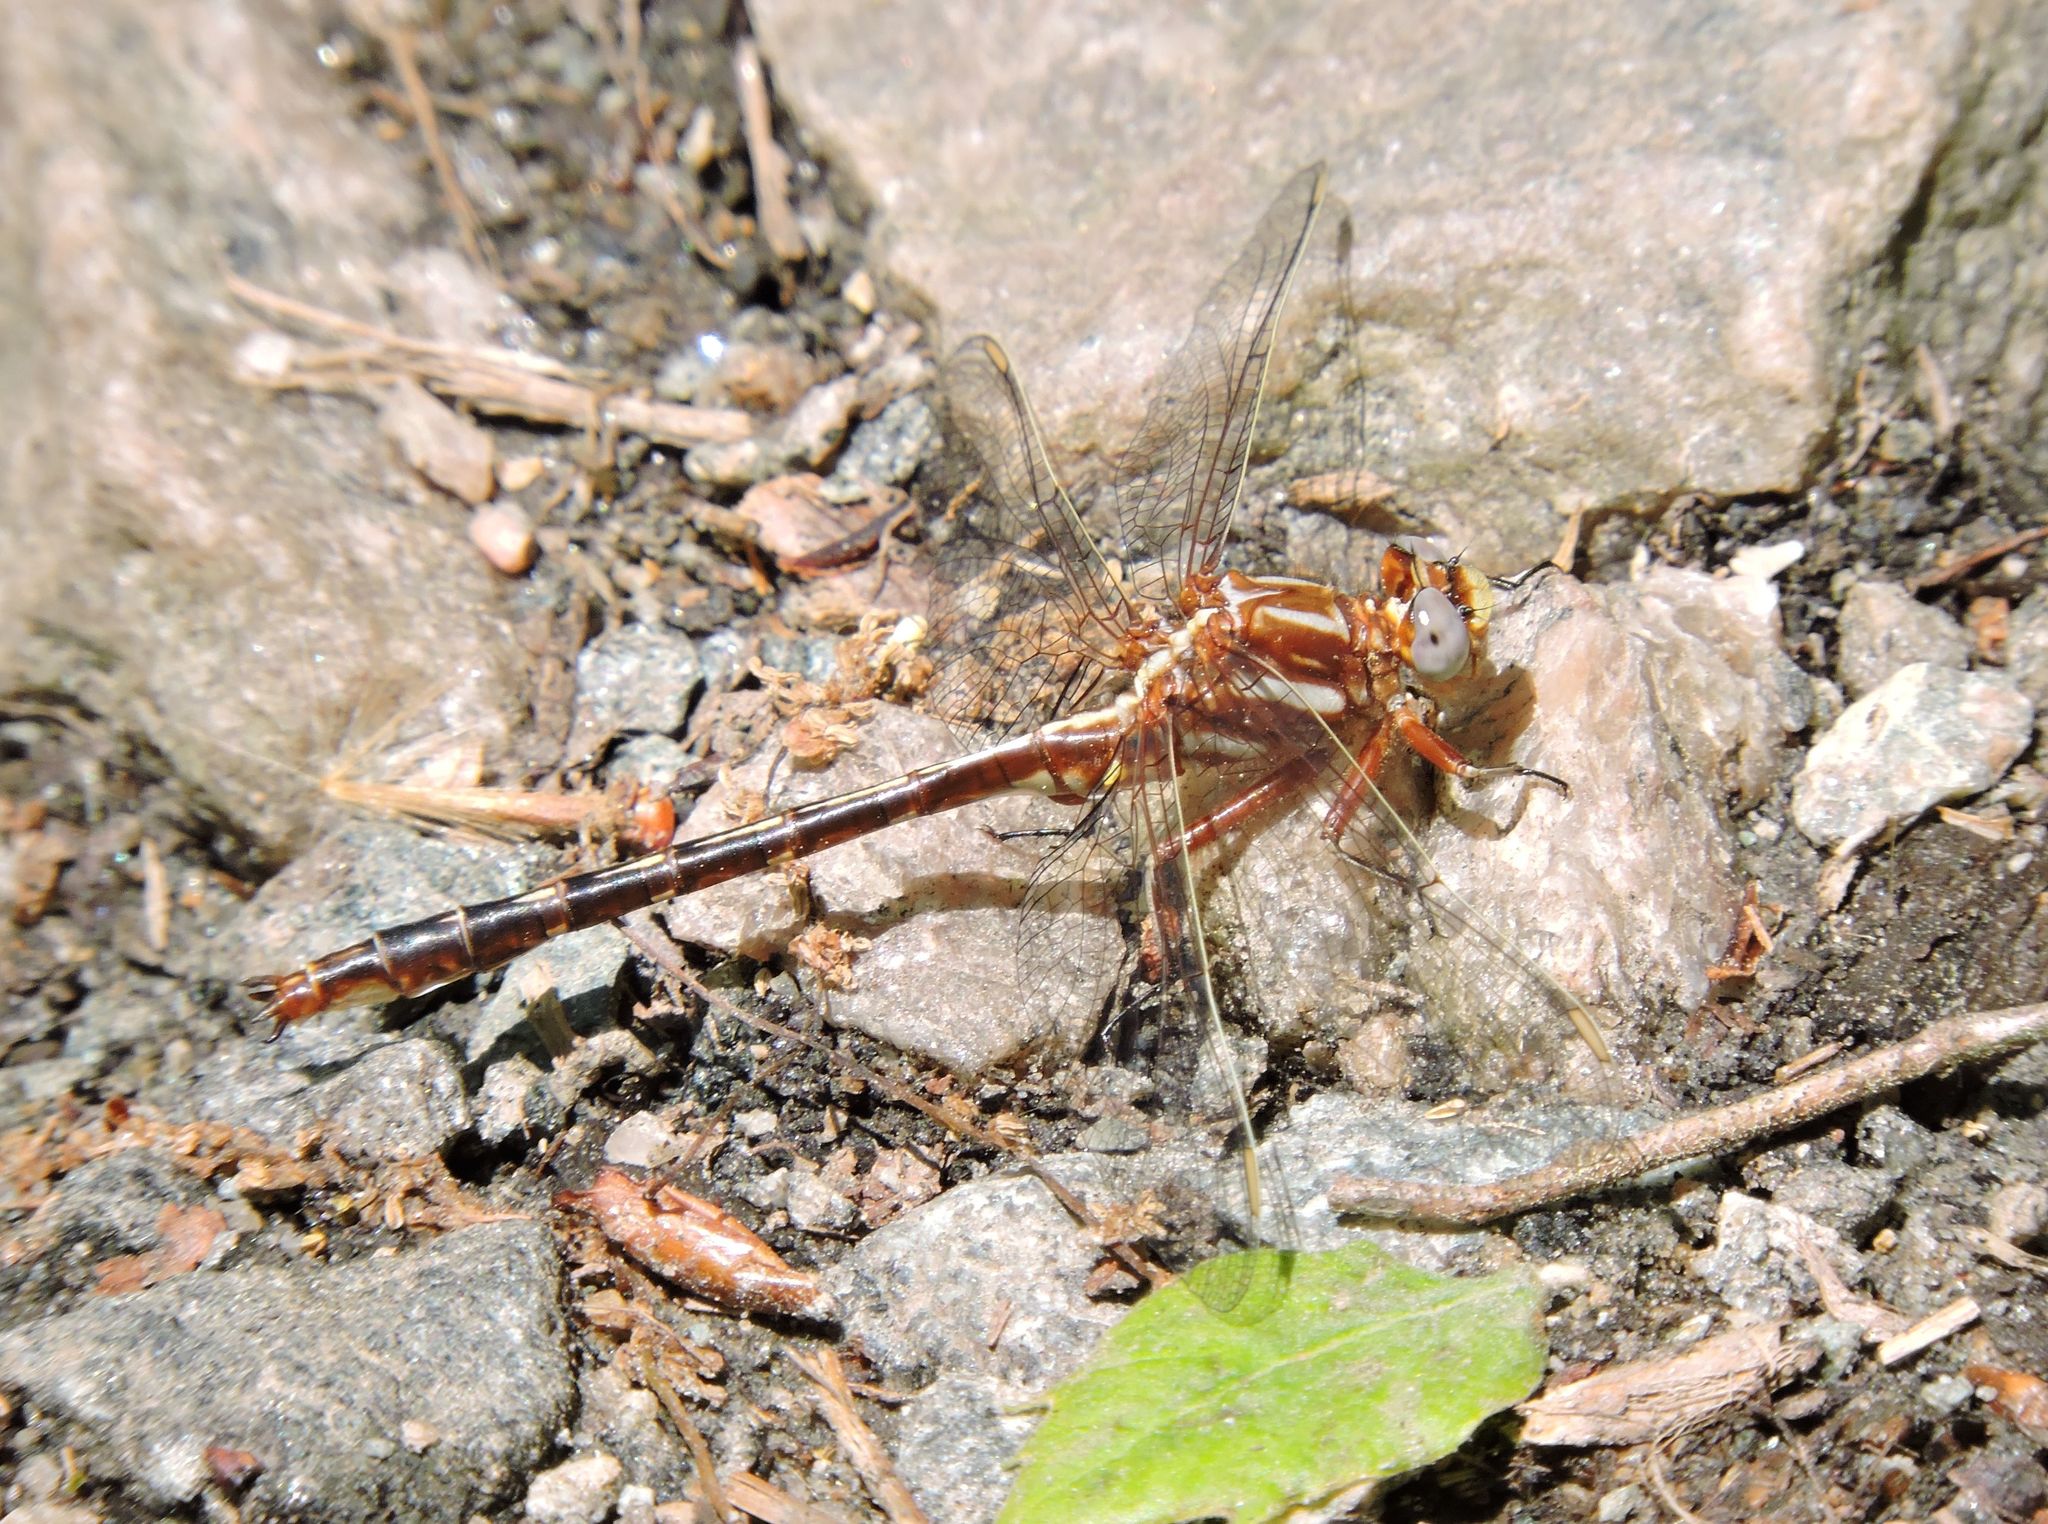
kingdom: Animalia
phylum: Arthropoda
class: Insecta
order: Odonata
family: Gomphidae
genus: Phanogomphus
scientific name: Phanogomphus lividus
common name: Ashy clubtail
